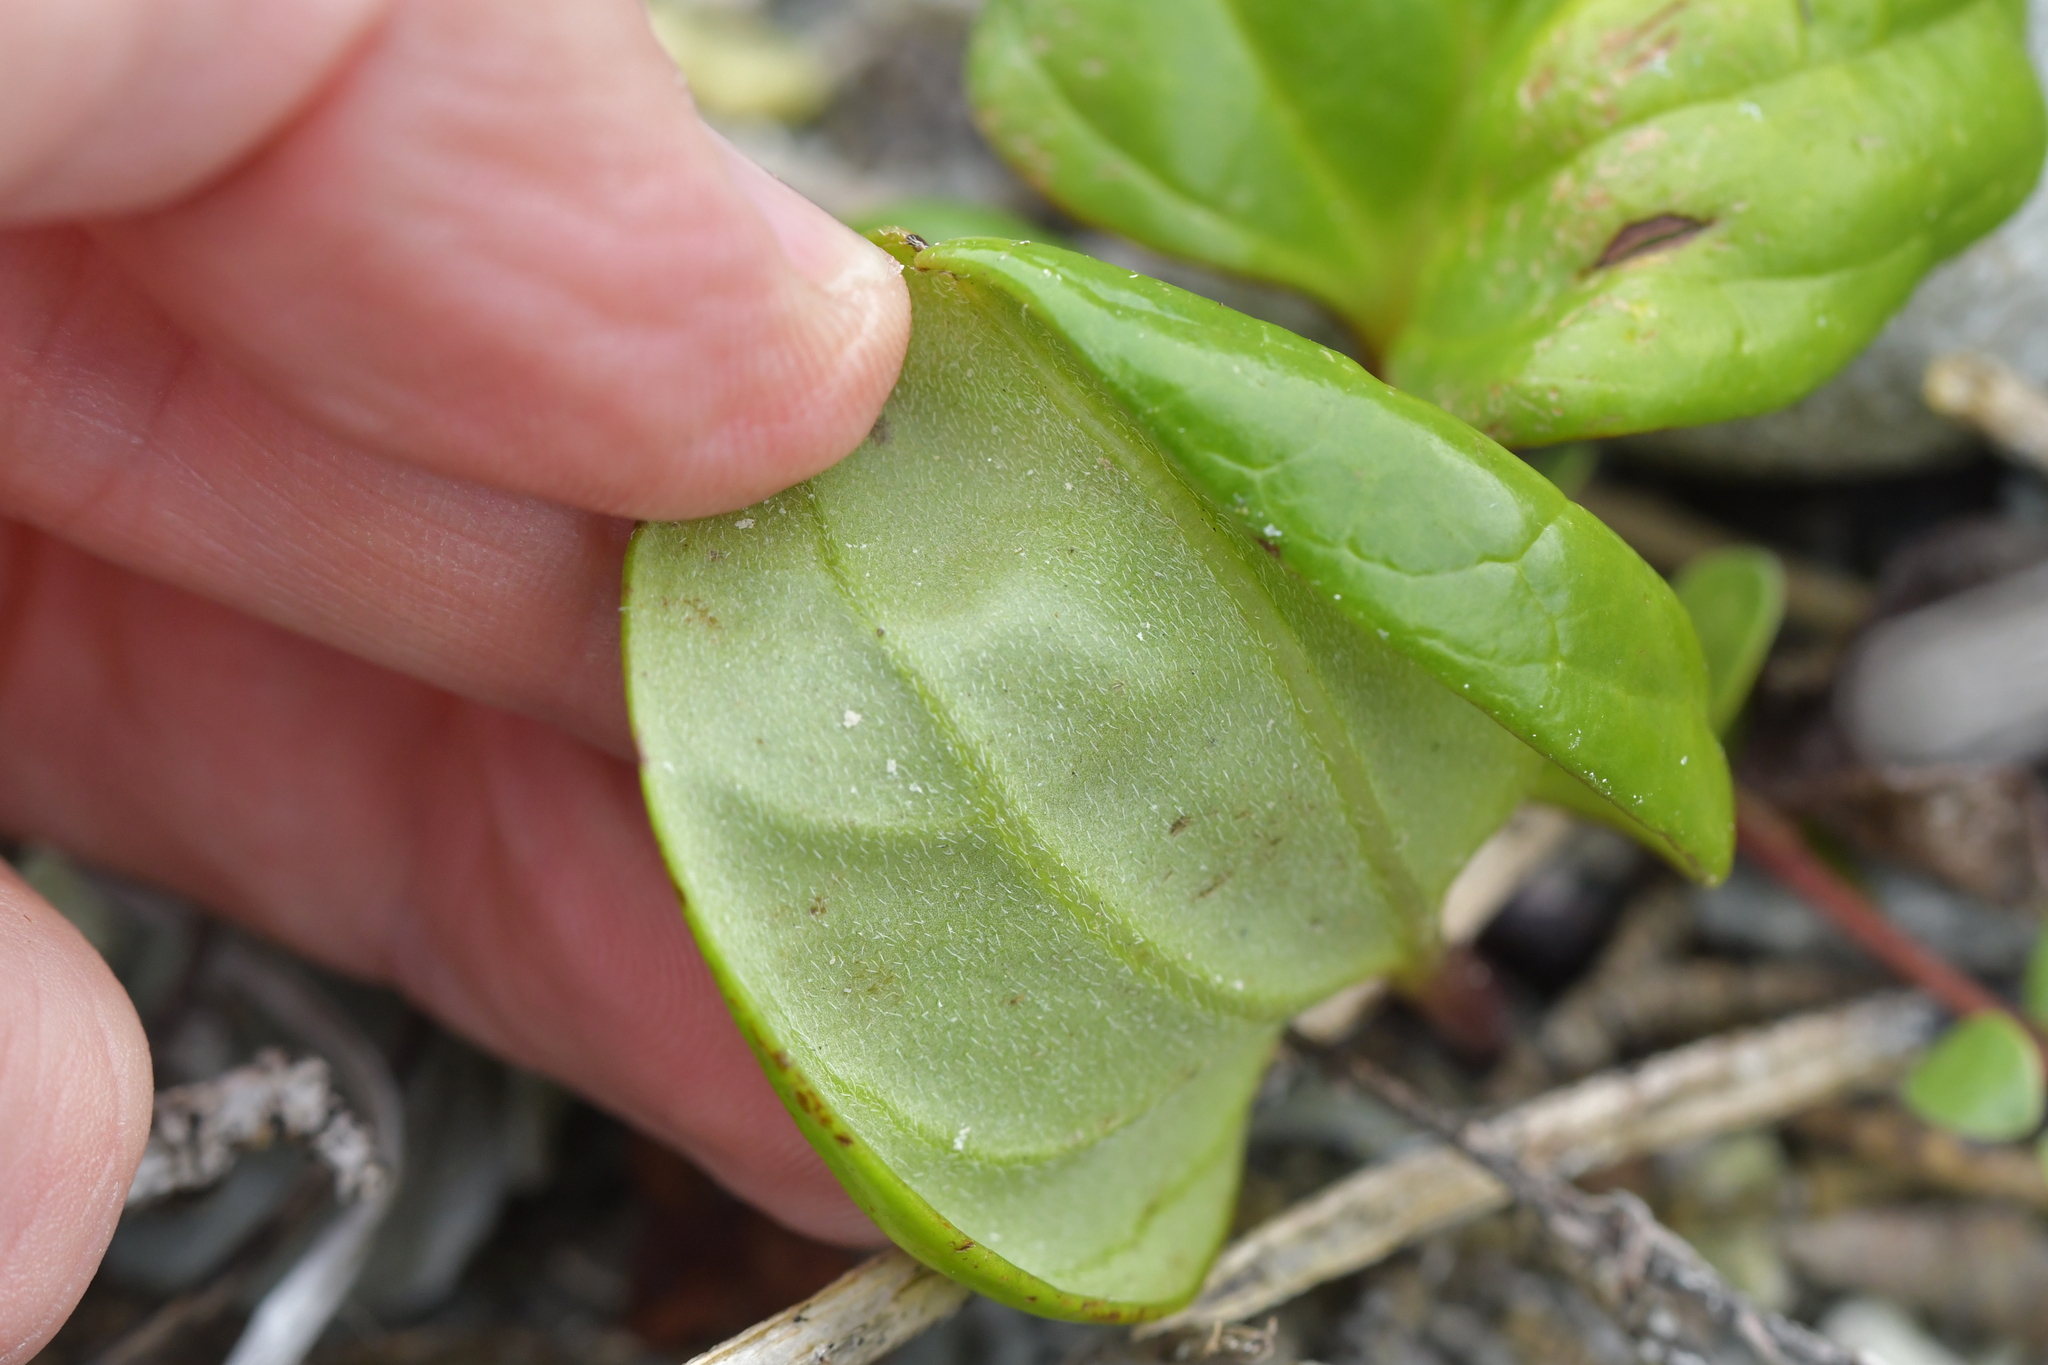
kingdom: Plantae
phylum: Tracheophyta
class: Magnoliopsida
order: Boraginales
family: Boraginaceae
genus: Myosotidium
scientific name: Myosotidium hortensia
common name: Giant forget-me-not
